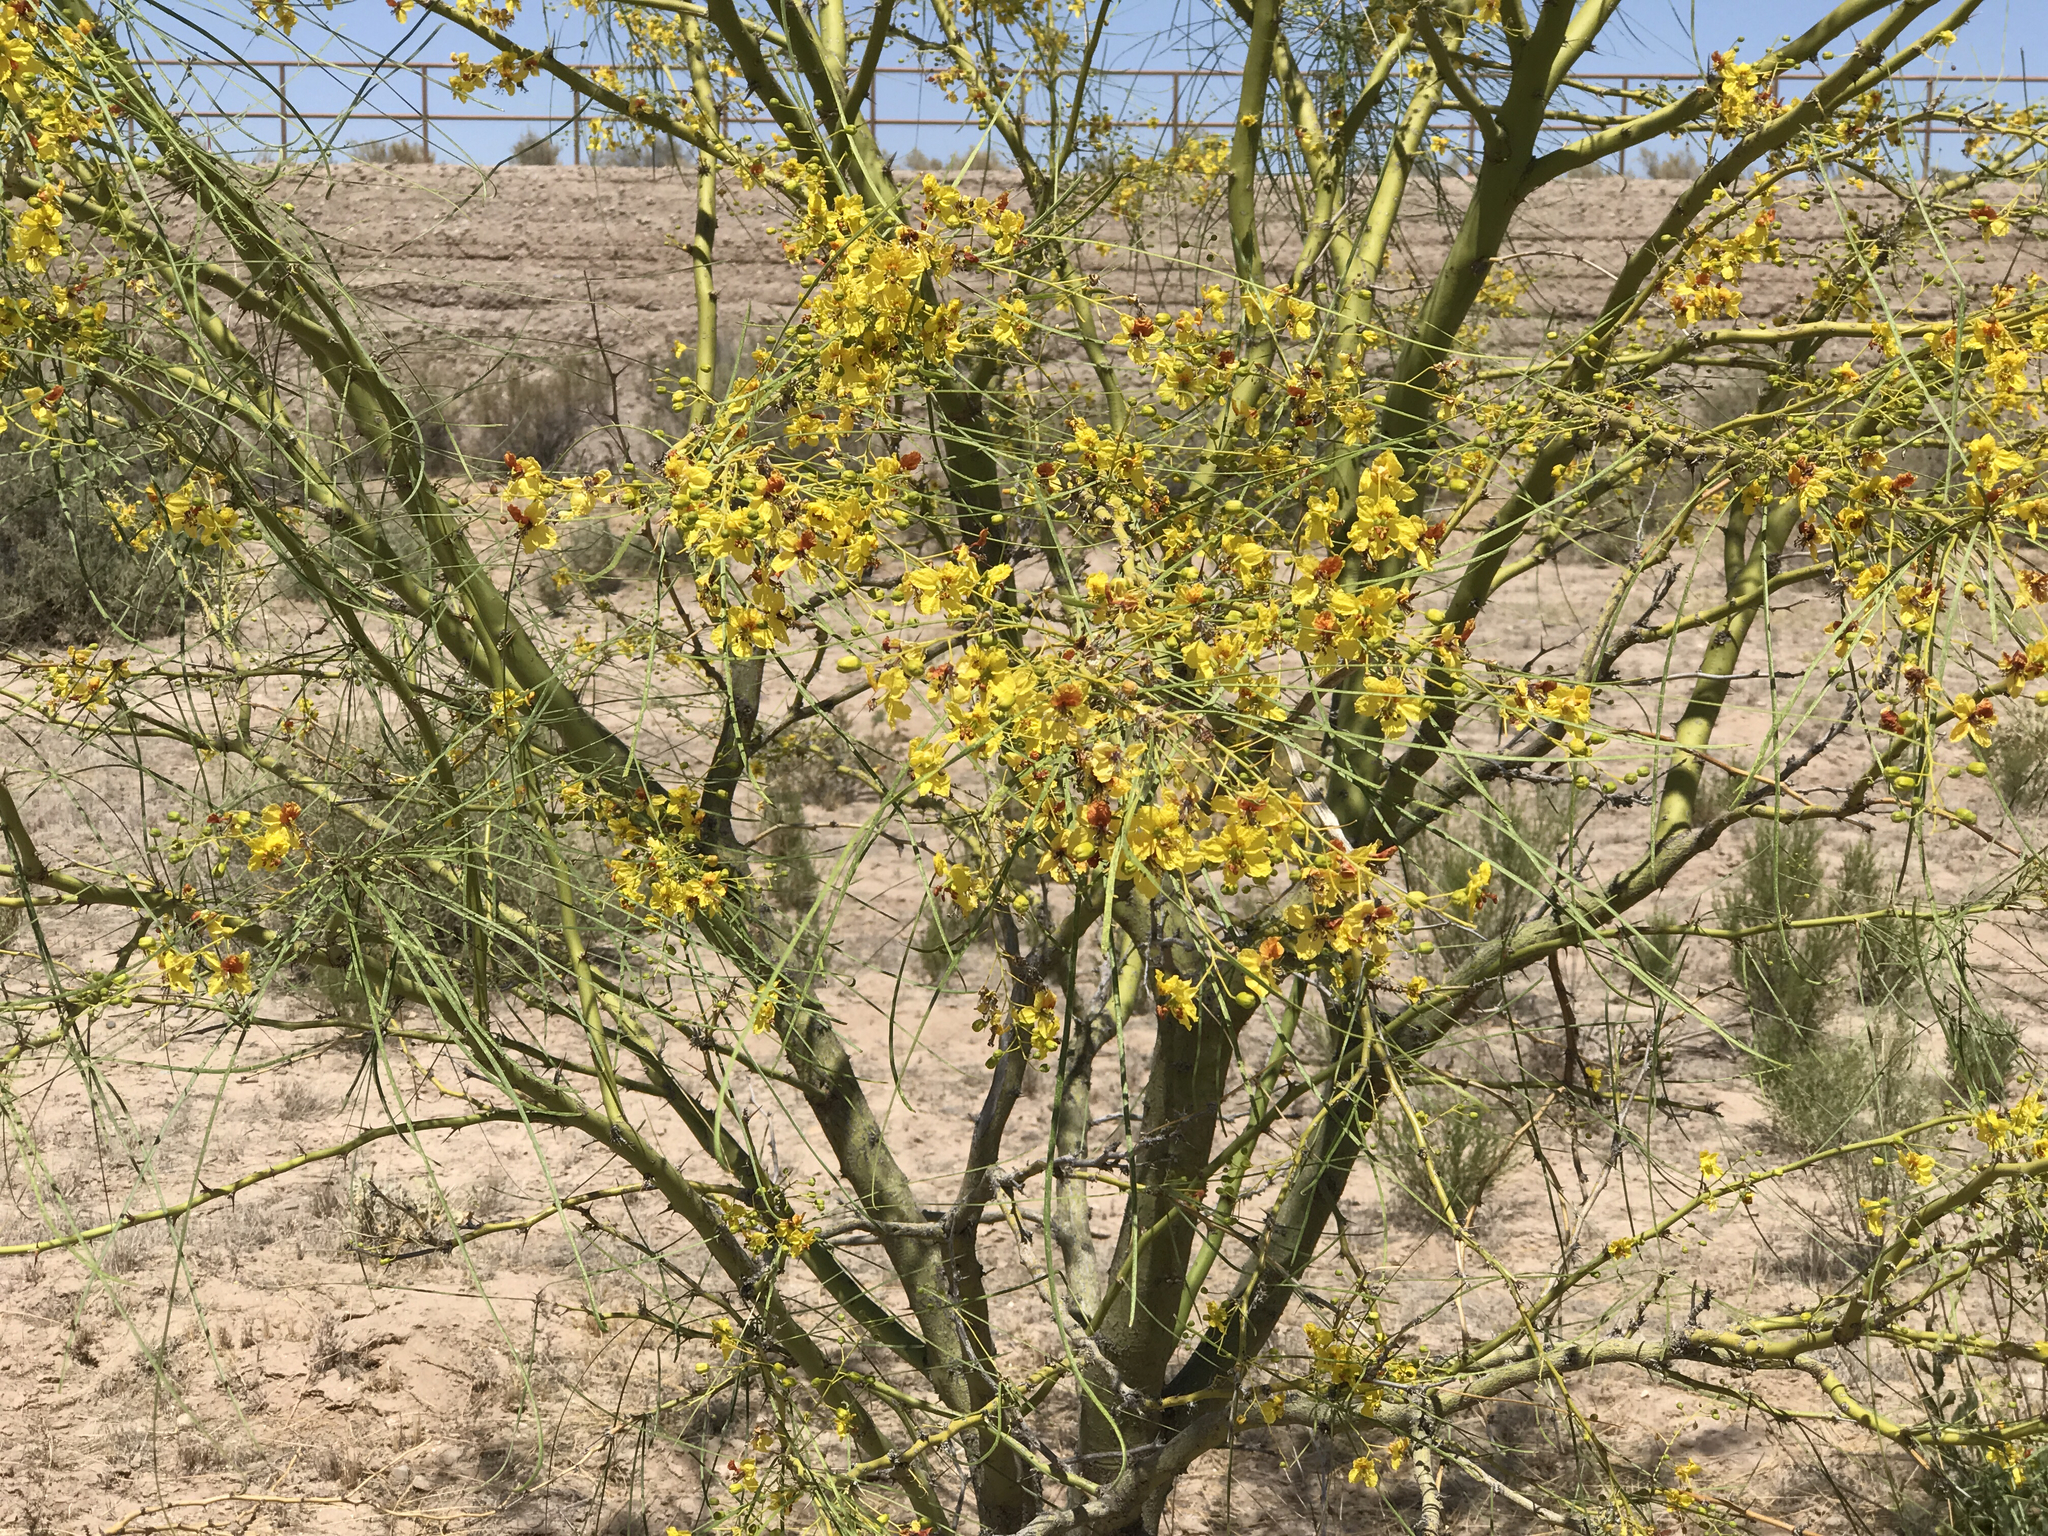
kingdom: Plantae
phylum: Tracheophyta
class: Magnoliopsida
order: Fabales
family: Fabaceae
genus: Parkinsonia
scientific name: Parkinsonia aculeata
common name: Jerusalem thorn
